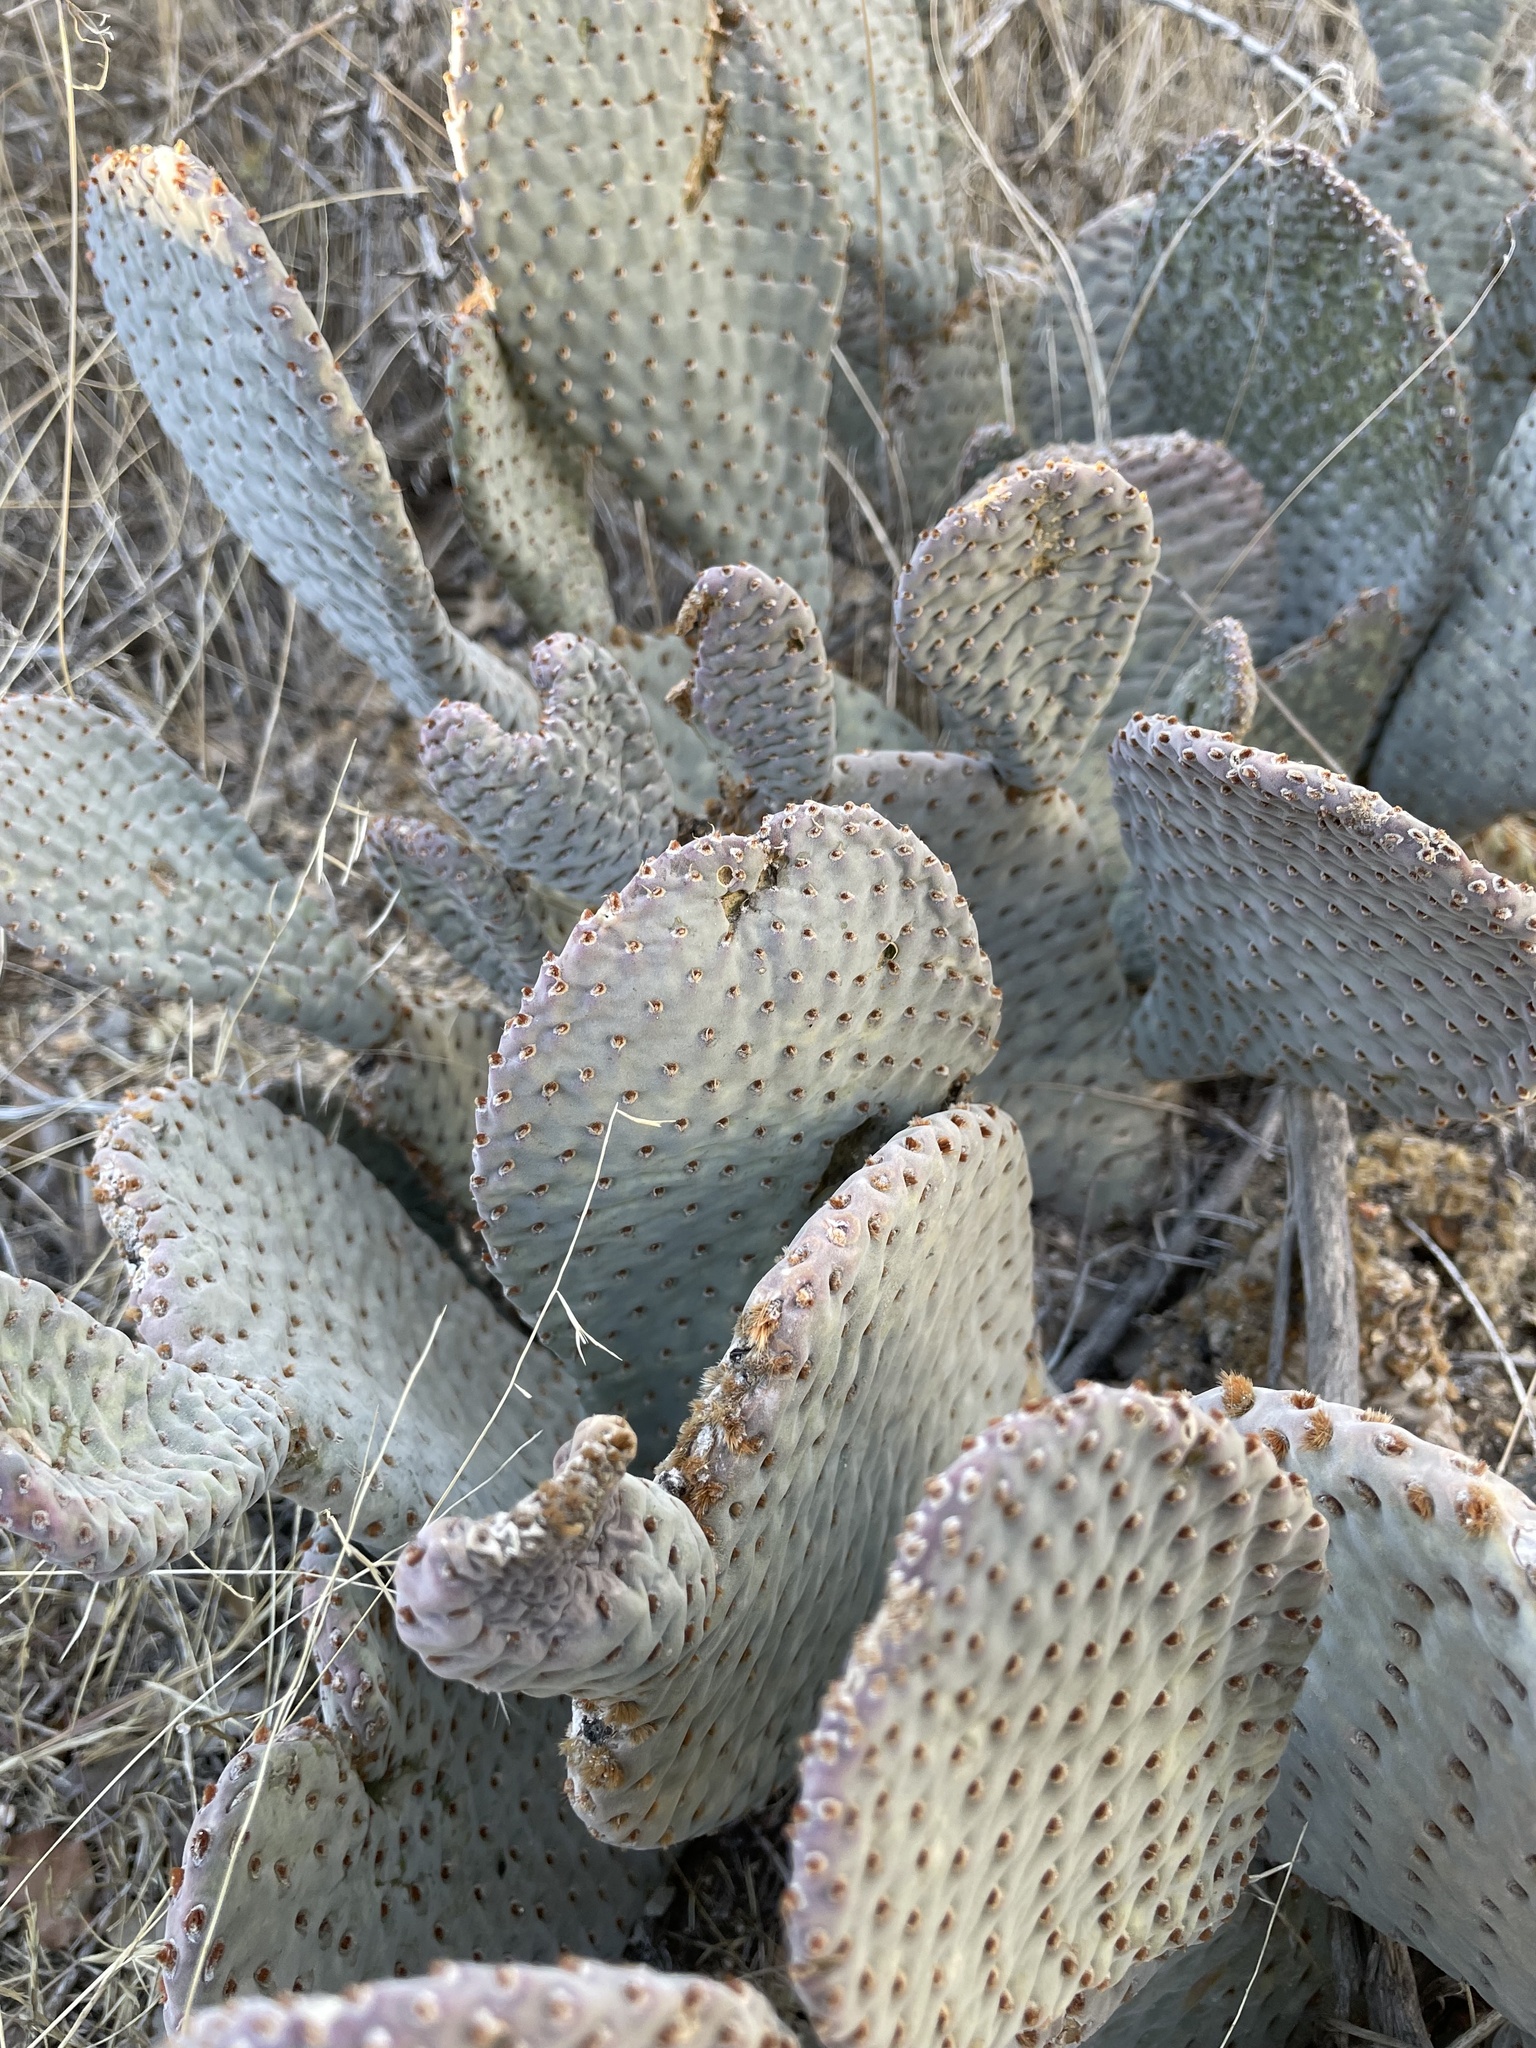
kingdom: Plantae
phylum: Tracheophyta
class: Magnoliopsida
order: Caryophyllales
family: Cactaceae
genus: Opuntia
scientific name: Opuntia basilaris
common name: Beavertail prickly-pear
